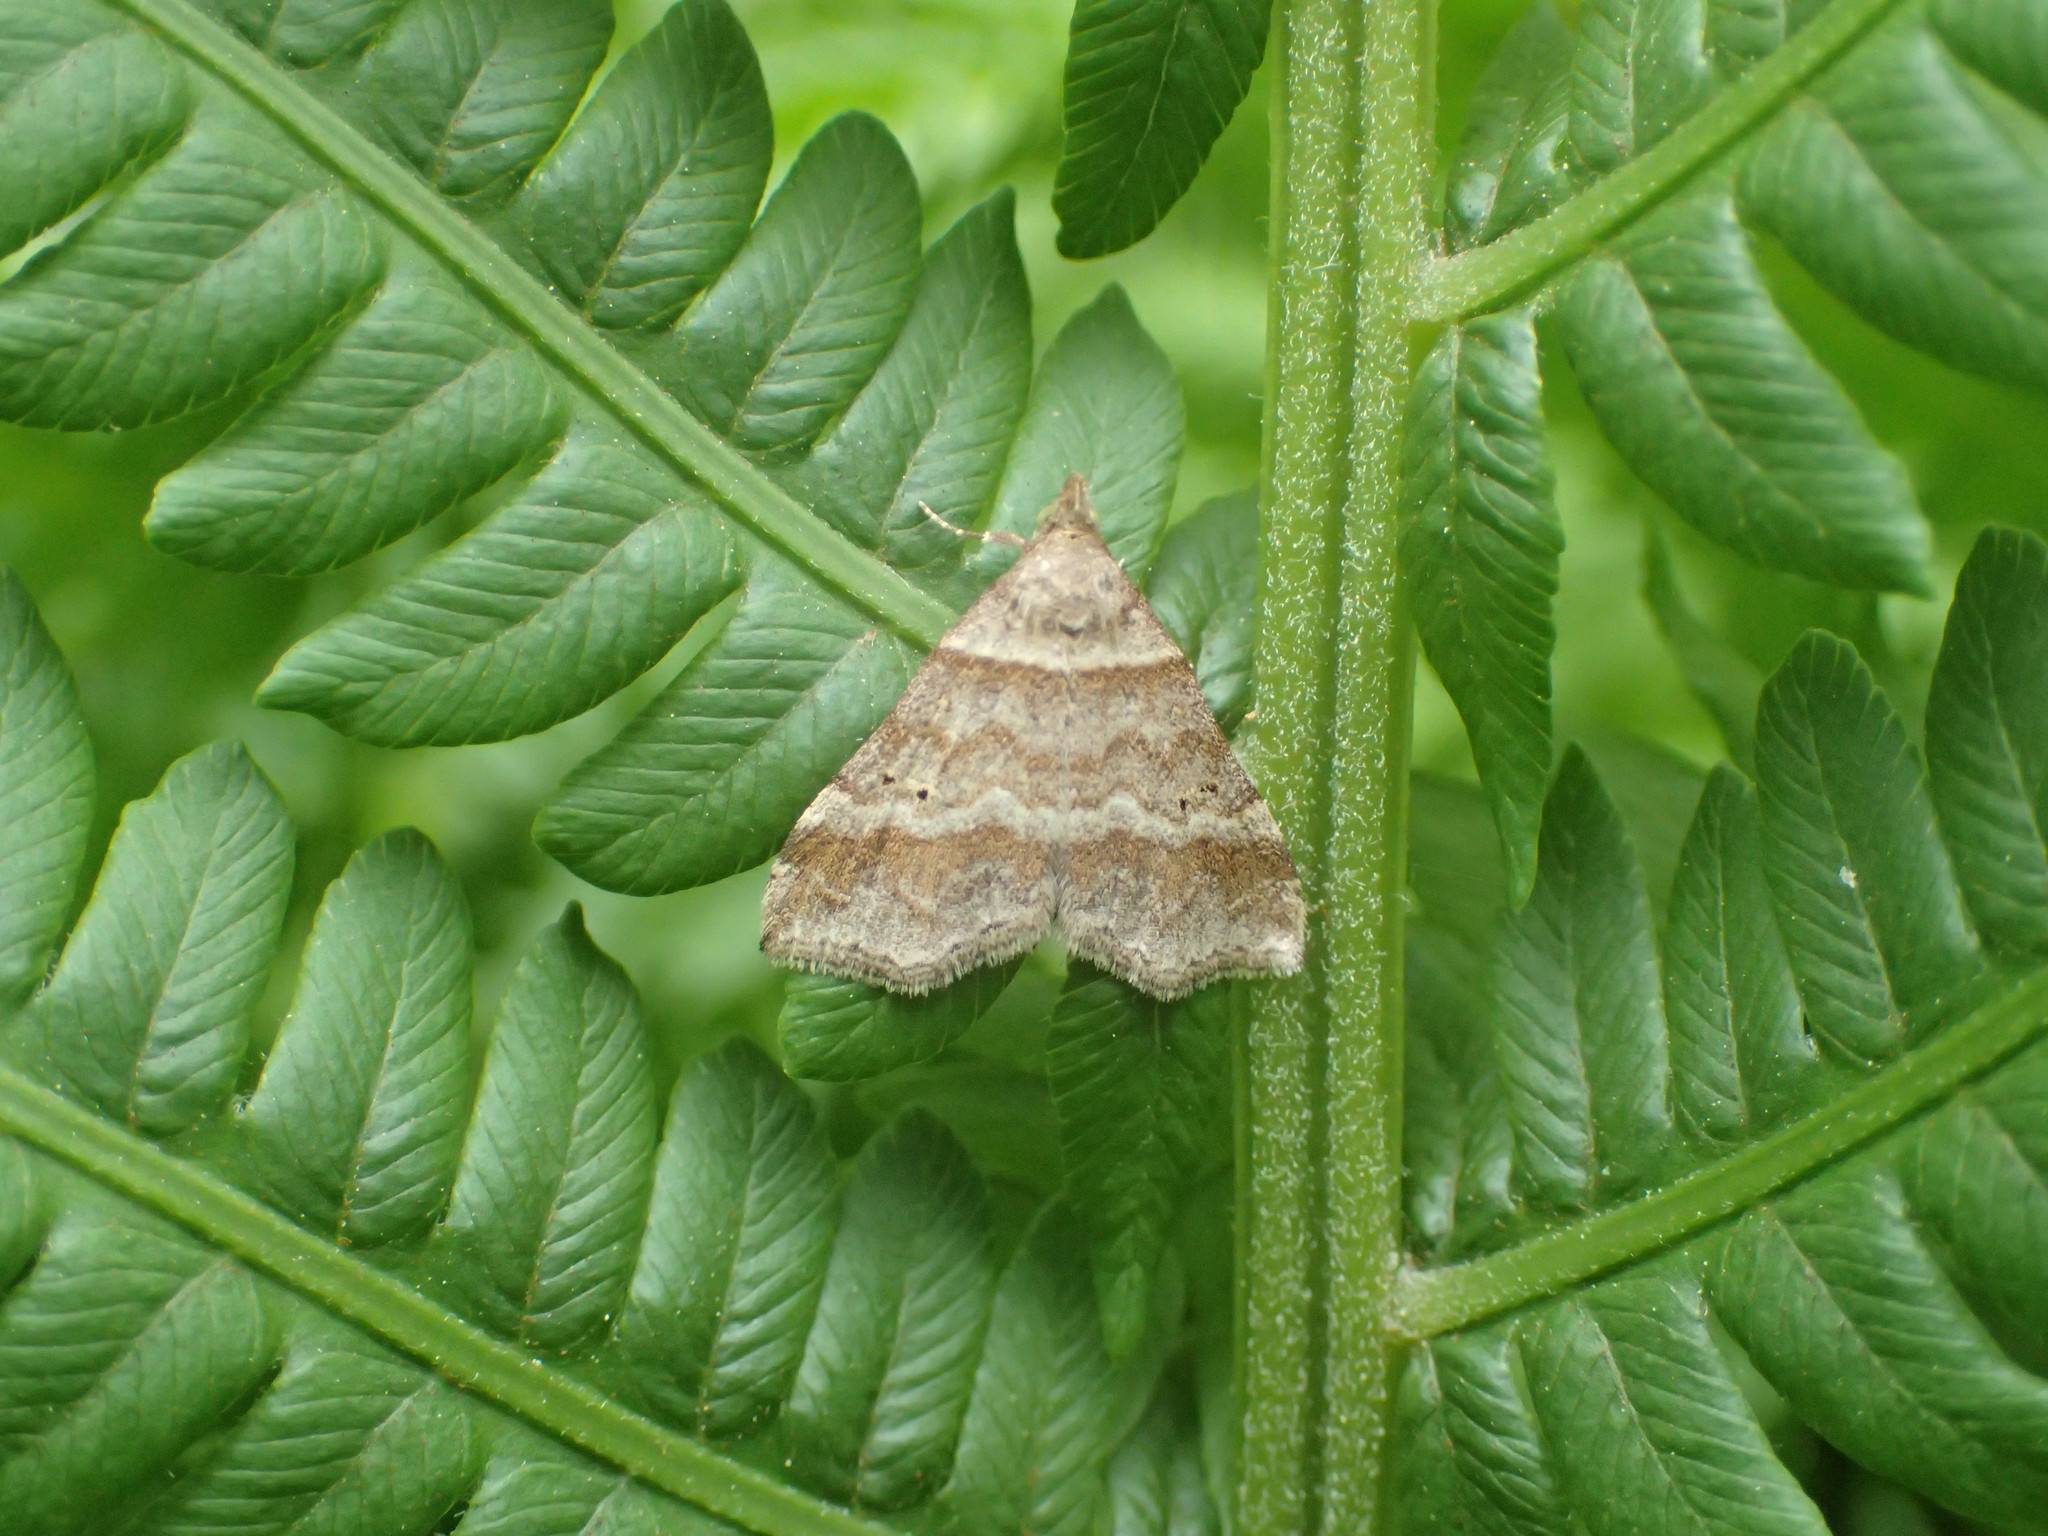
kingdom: Animalia
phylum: Arthropoda
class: Insecta
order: Lepidoptera
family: Erebidae
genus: Phaeolita
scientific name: Phaeolita pyramusalis
